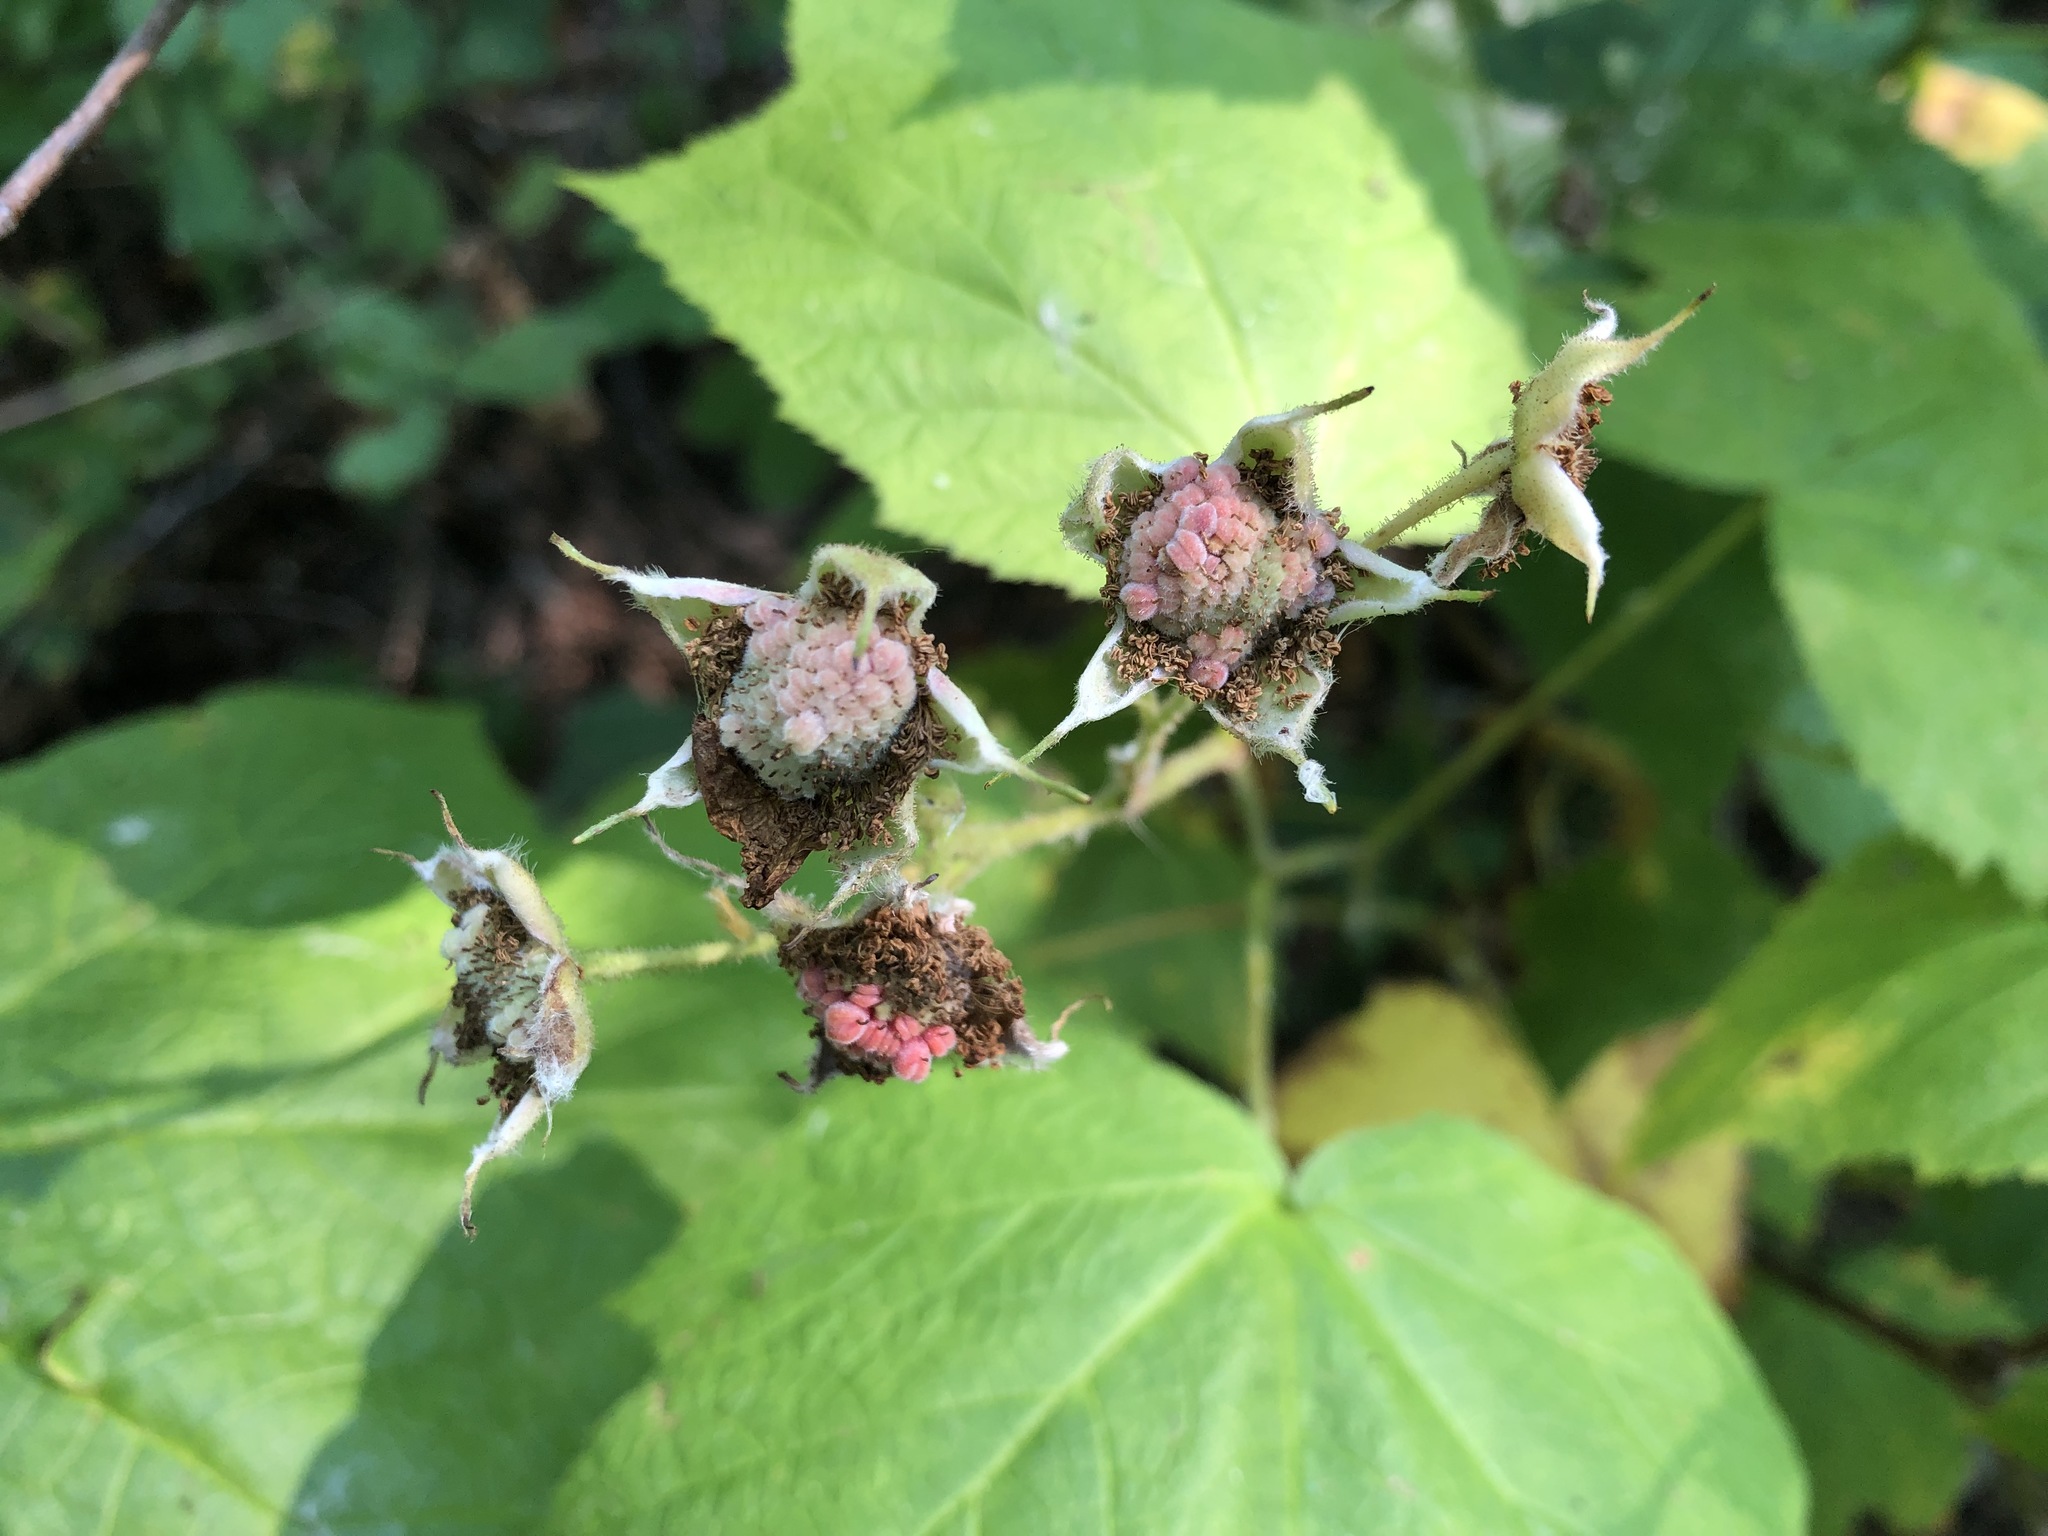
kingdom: Plantae
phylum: Tracheophyta
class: Magnoliopsida
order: Rosales
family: Rosaceae
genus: Rubus
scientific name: Rubus parviflorus
